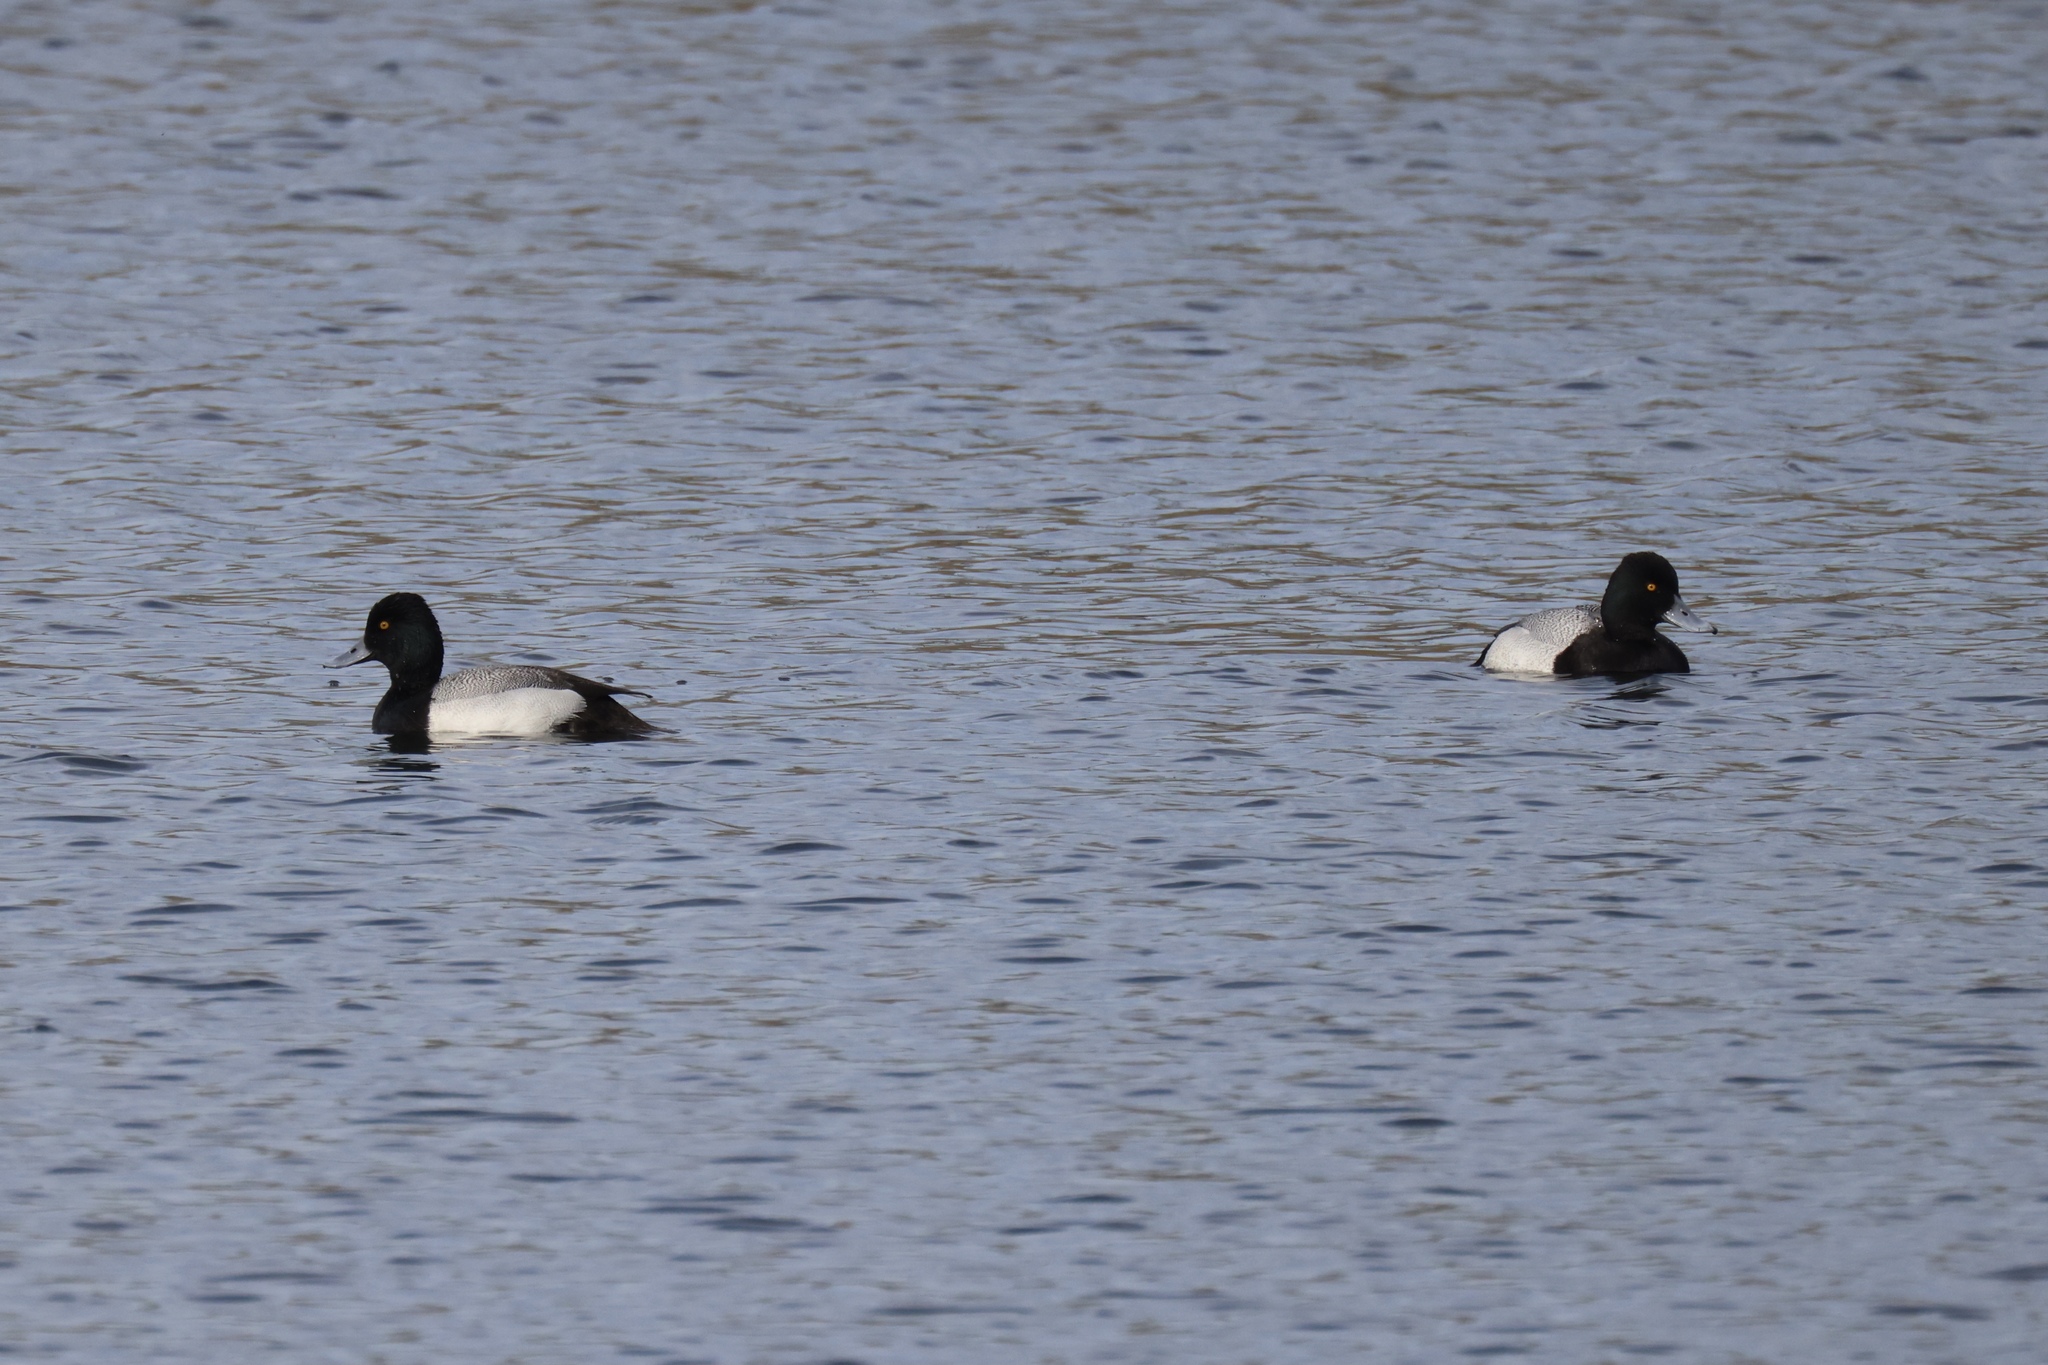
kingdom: Animalia
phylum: Chordata
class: Aves
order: Anseriformes
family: Anatidae
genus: Aythya
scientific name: Aythya affinis
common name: Lesser scaup
